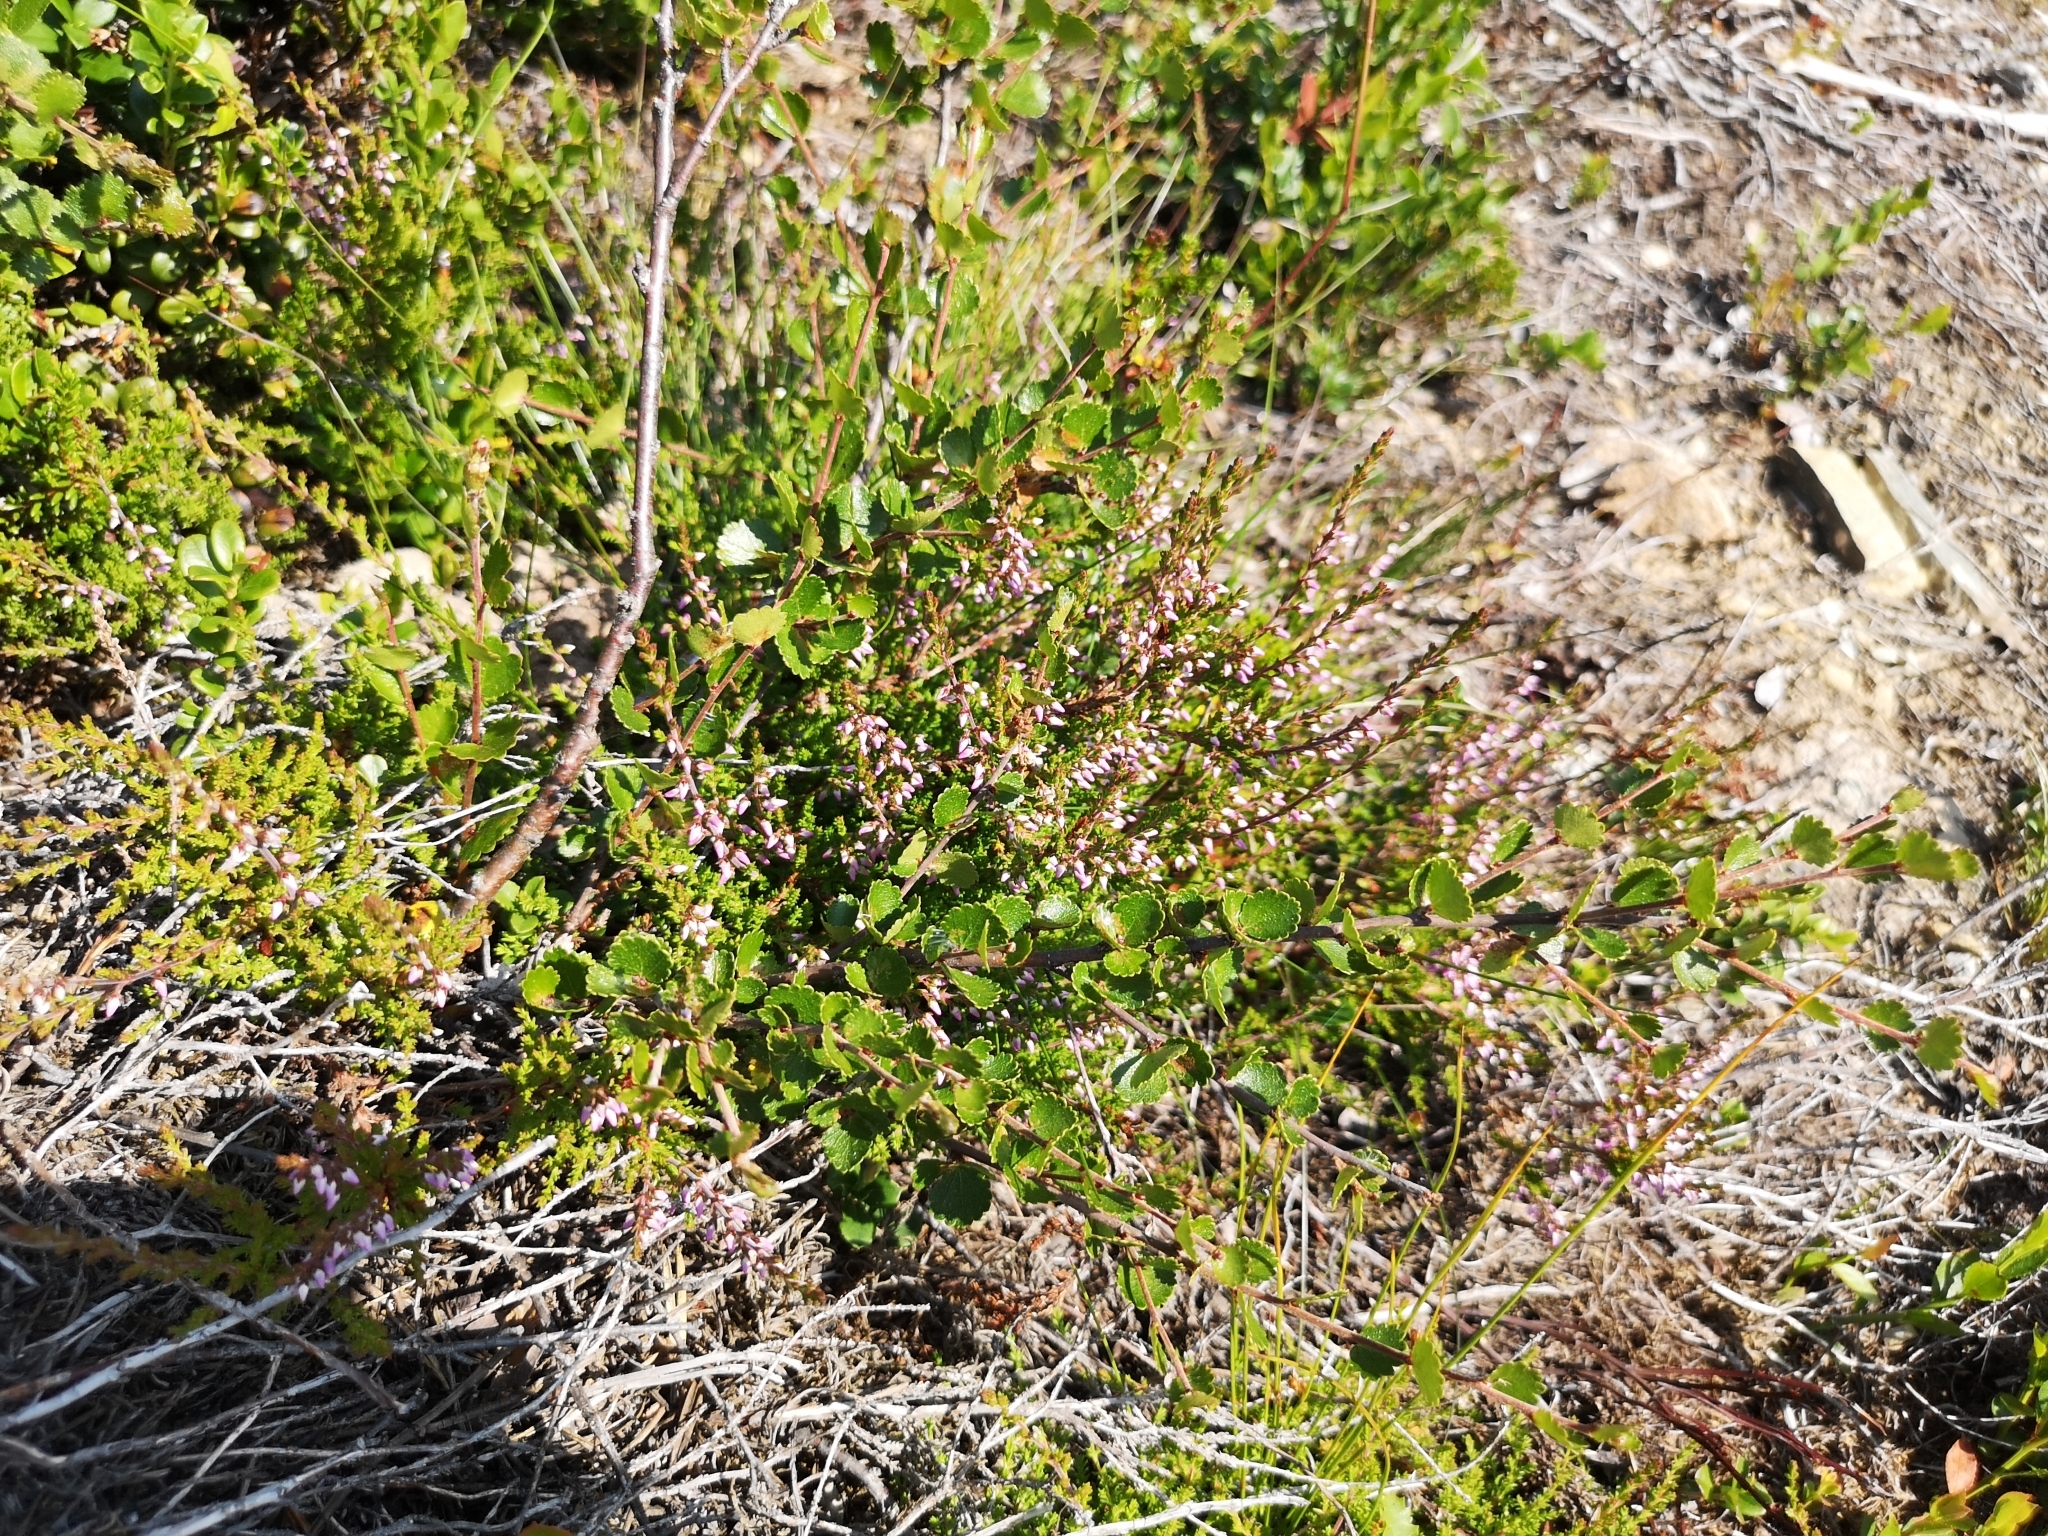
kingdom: Plantae
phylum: Tracheophyta
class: Magnoliopsida
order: Fagales
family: Betulaceae
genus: Betula
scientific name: Betula nana
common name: Arctic dwarf birch
